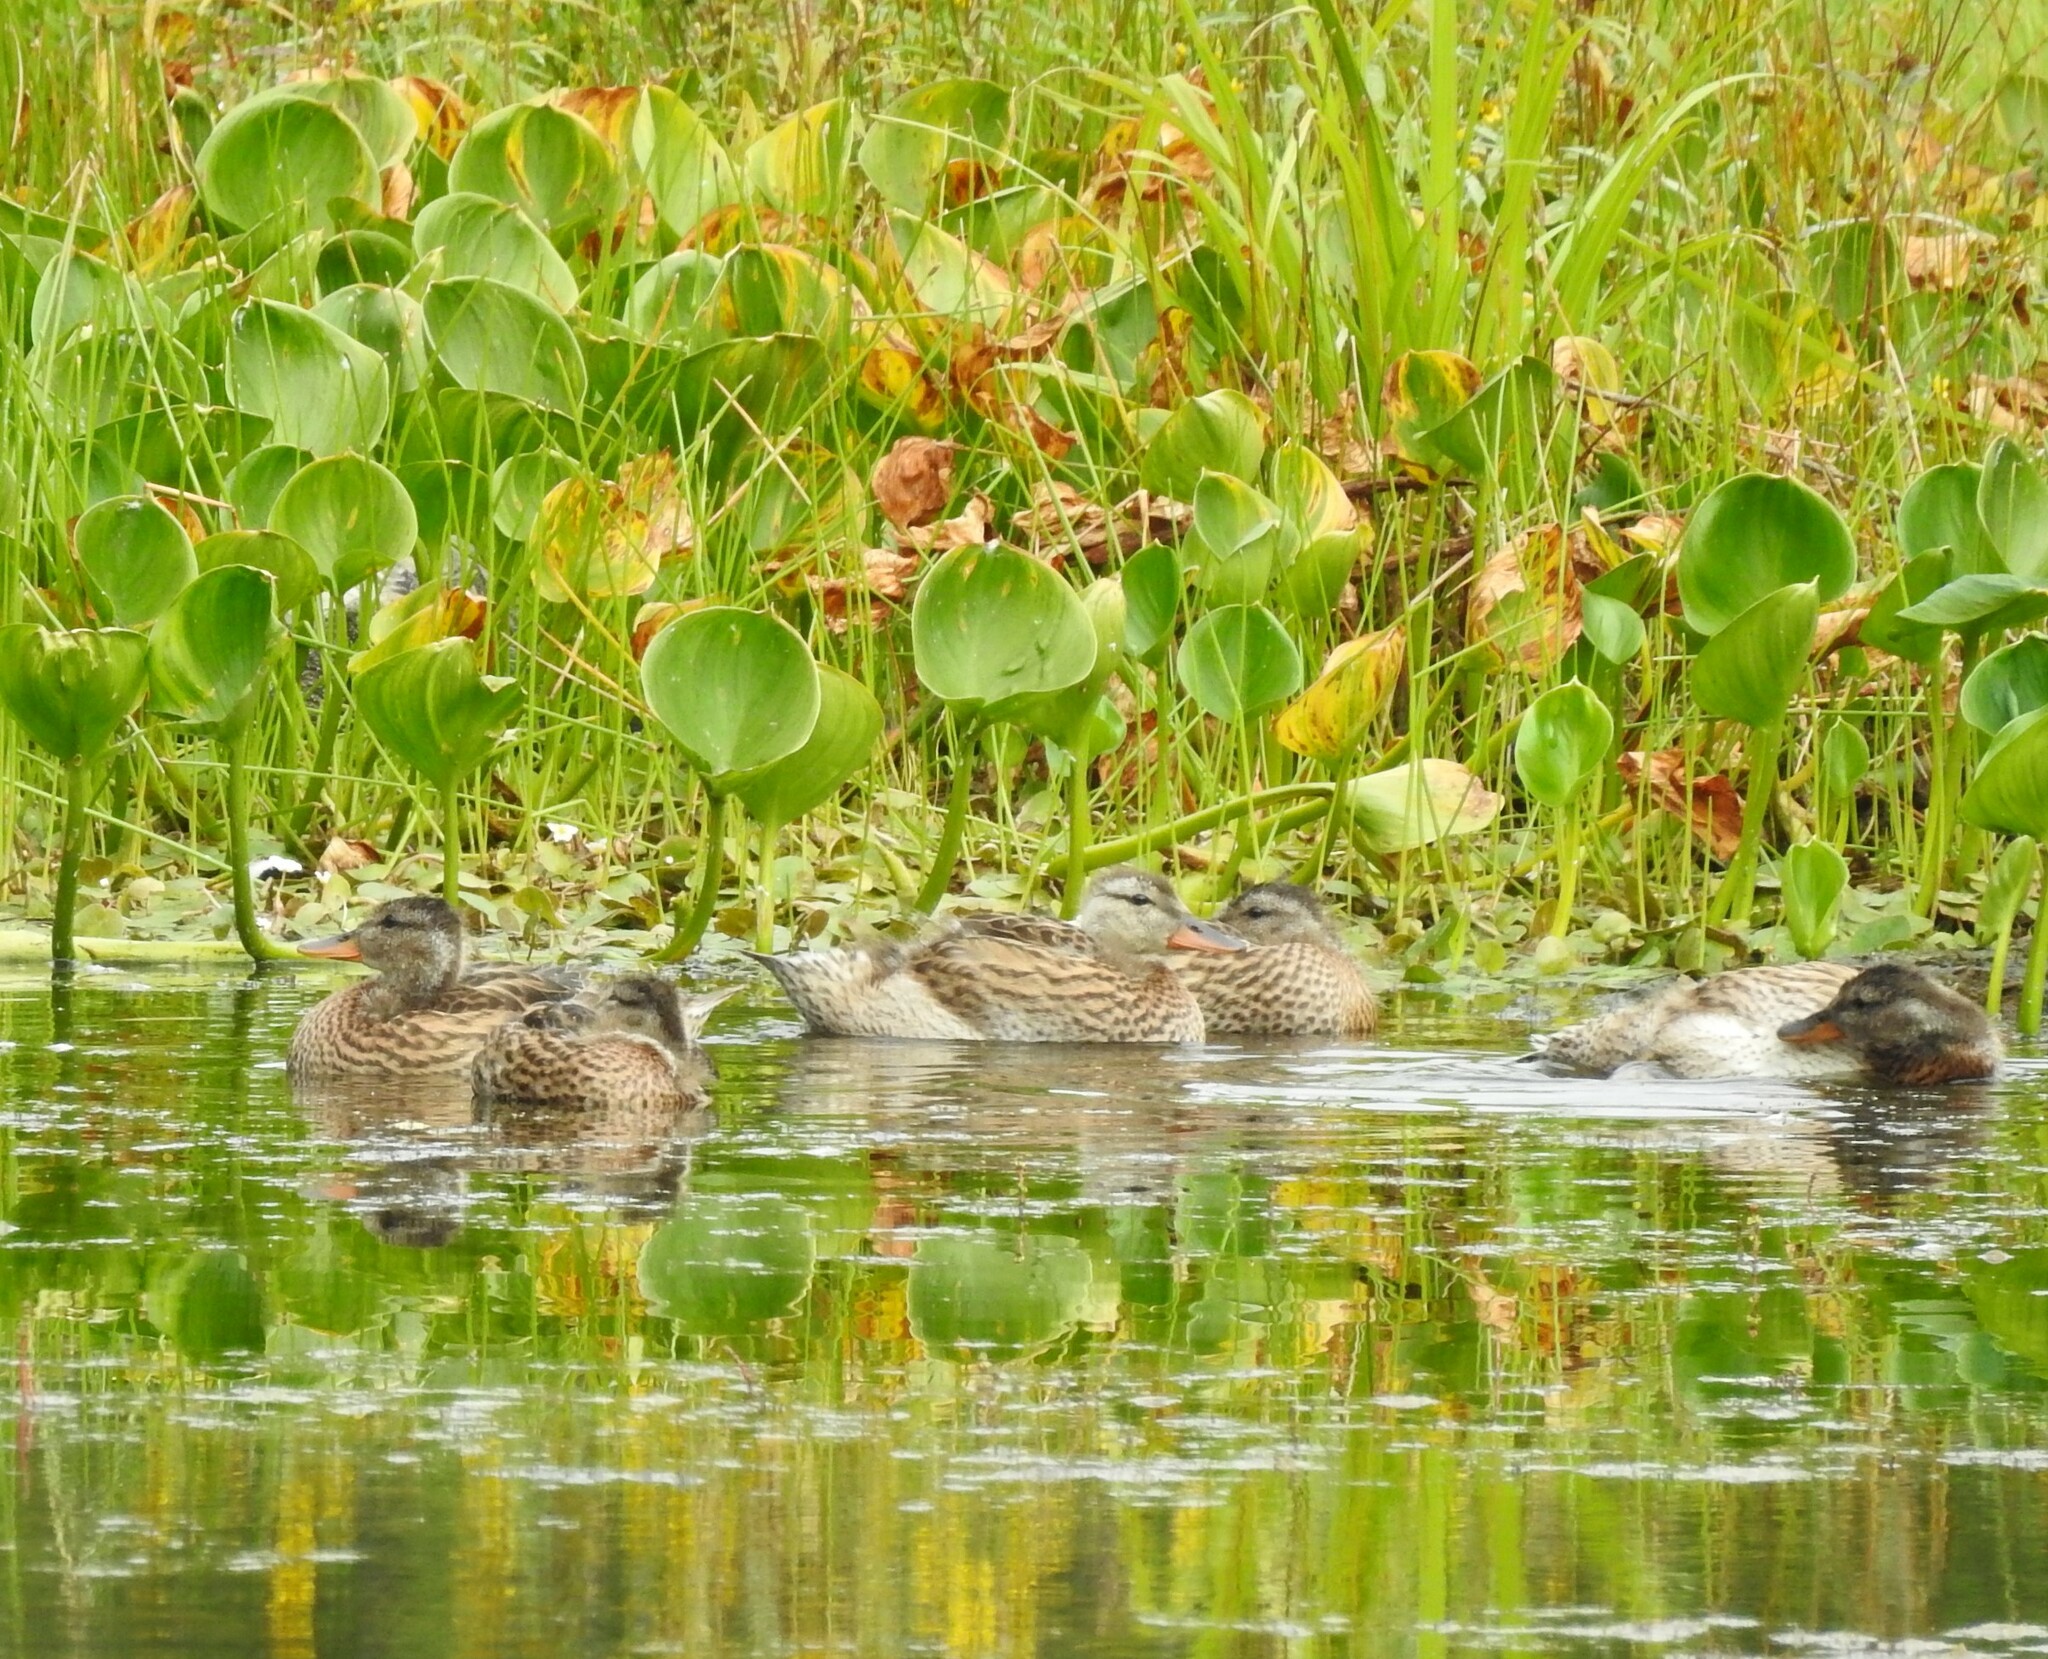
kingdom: Animalia
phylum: Chordata
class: Aves
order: Anseriformes
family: Anatidae
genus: Mareca
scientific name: Mareca strepera
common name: Gadwall
